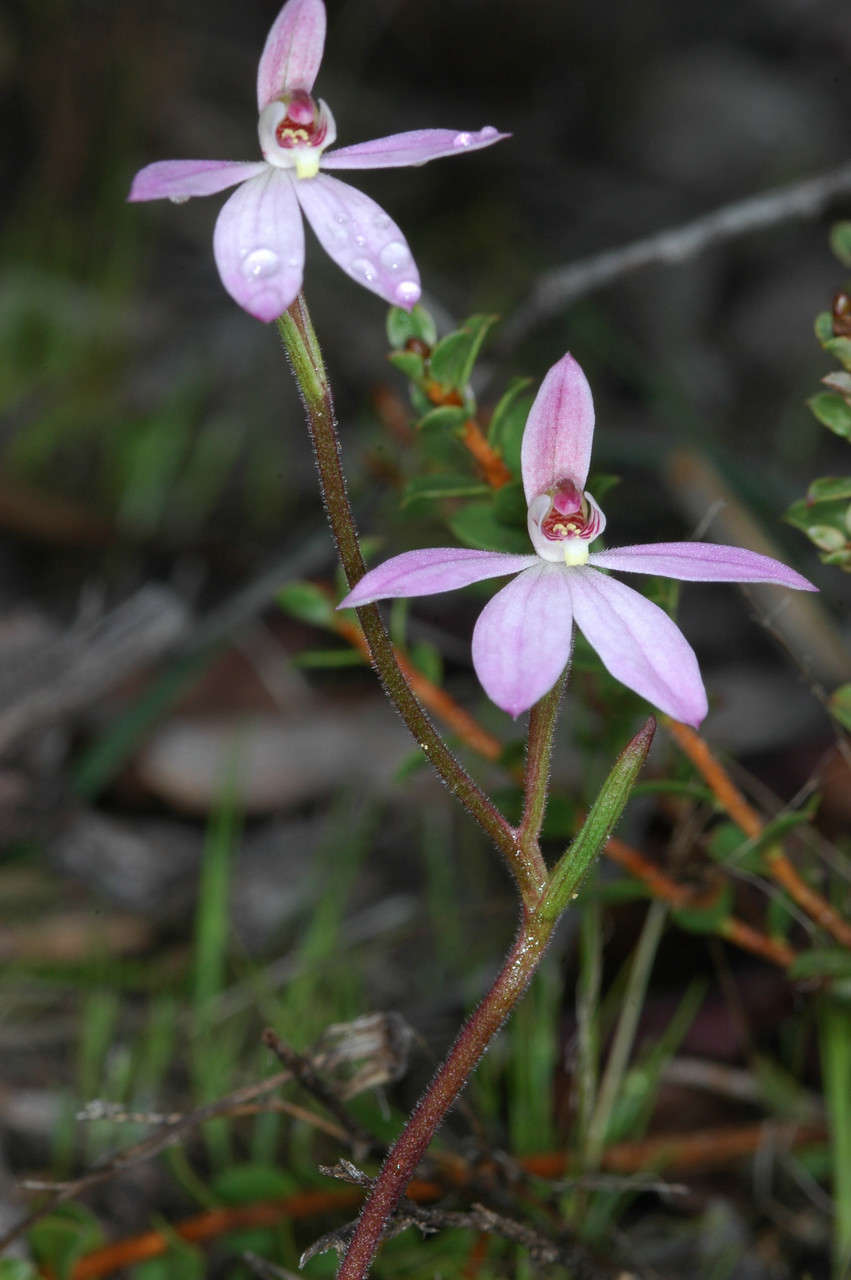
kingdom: Plantae
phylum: Tracheophyta
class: Liliopsida
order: Asparagales
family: Orchidaceae
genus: Caladenia
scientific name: Caladenia carnea
